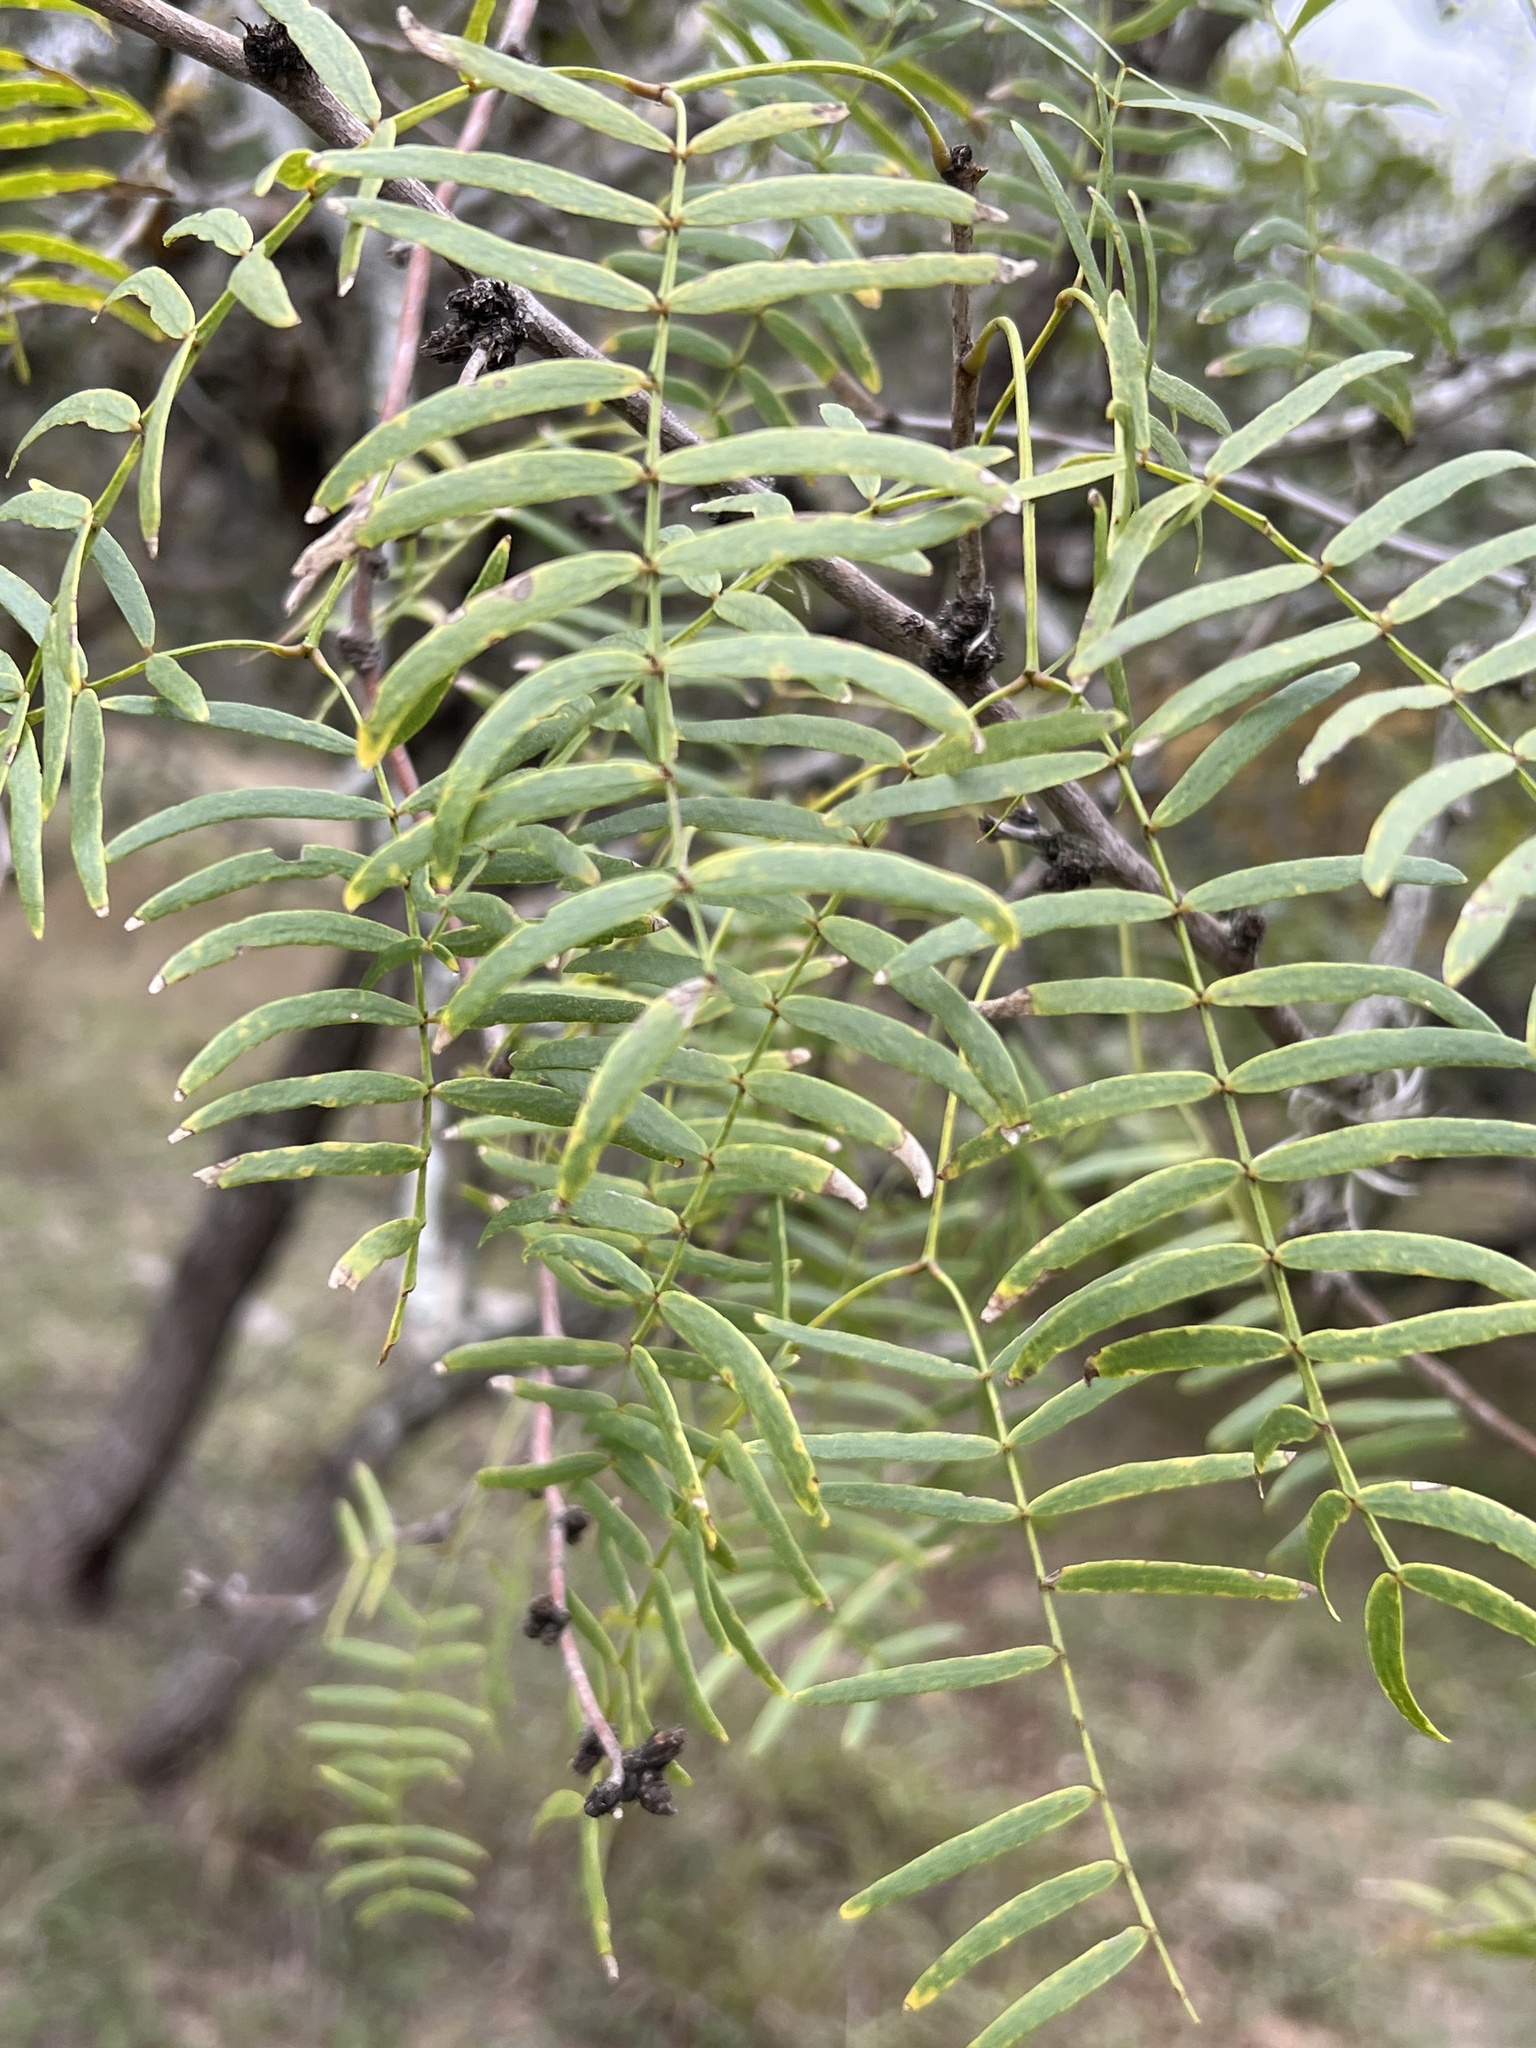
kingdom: Plantae
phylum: Tracheophyta
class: Magnoliopsida
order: Fabales
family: Fabaceae
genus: Prosopis
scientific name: Prosopis glandulosa
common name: Honey mesquite
